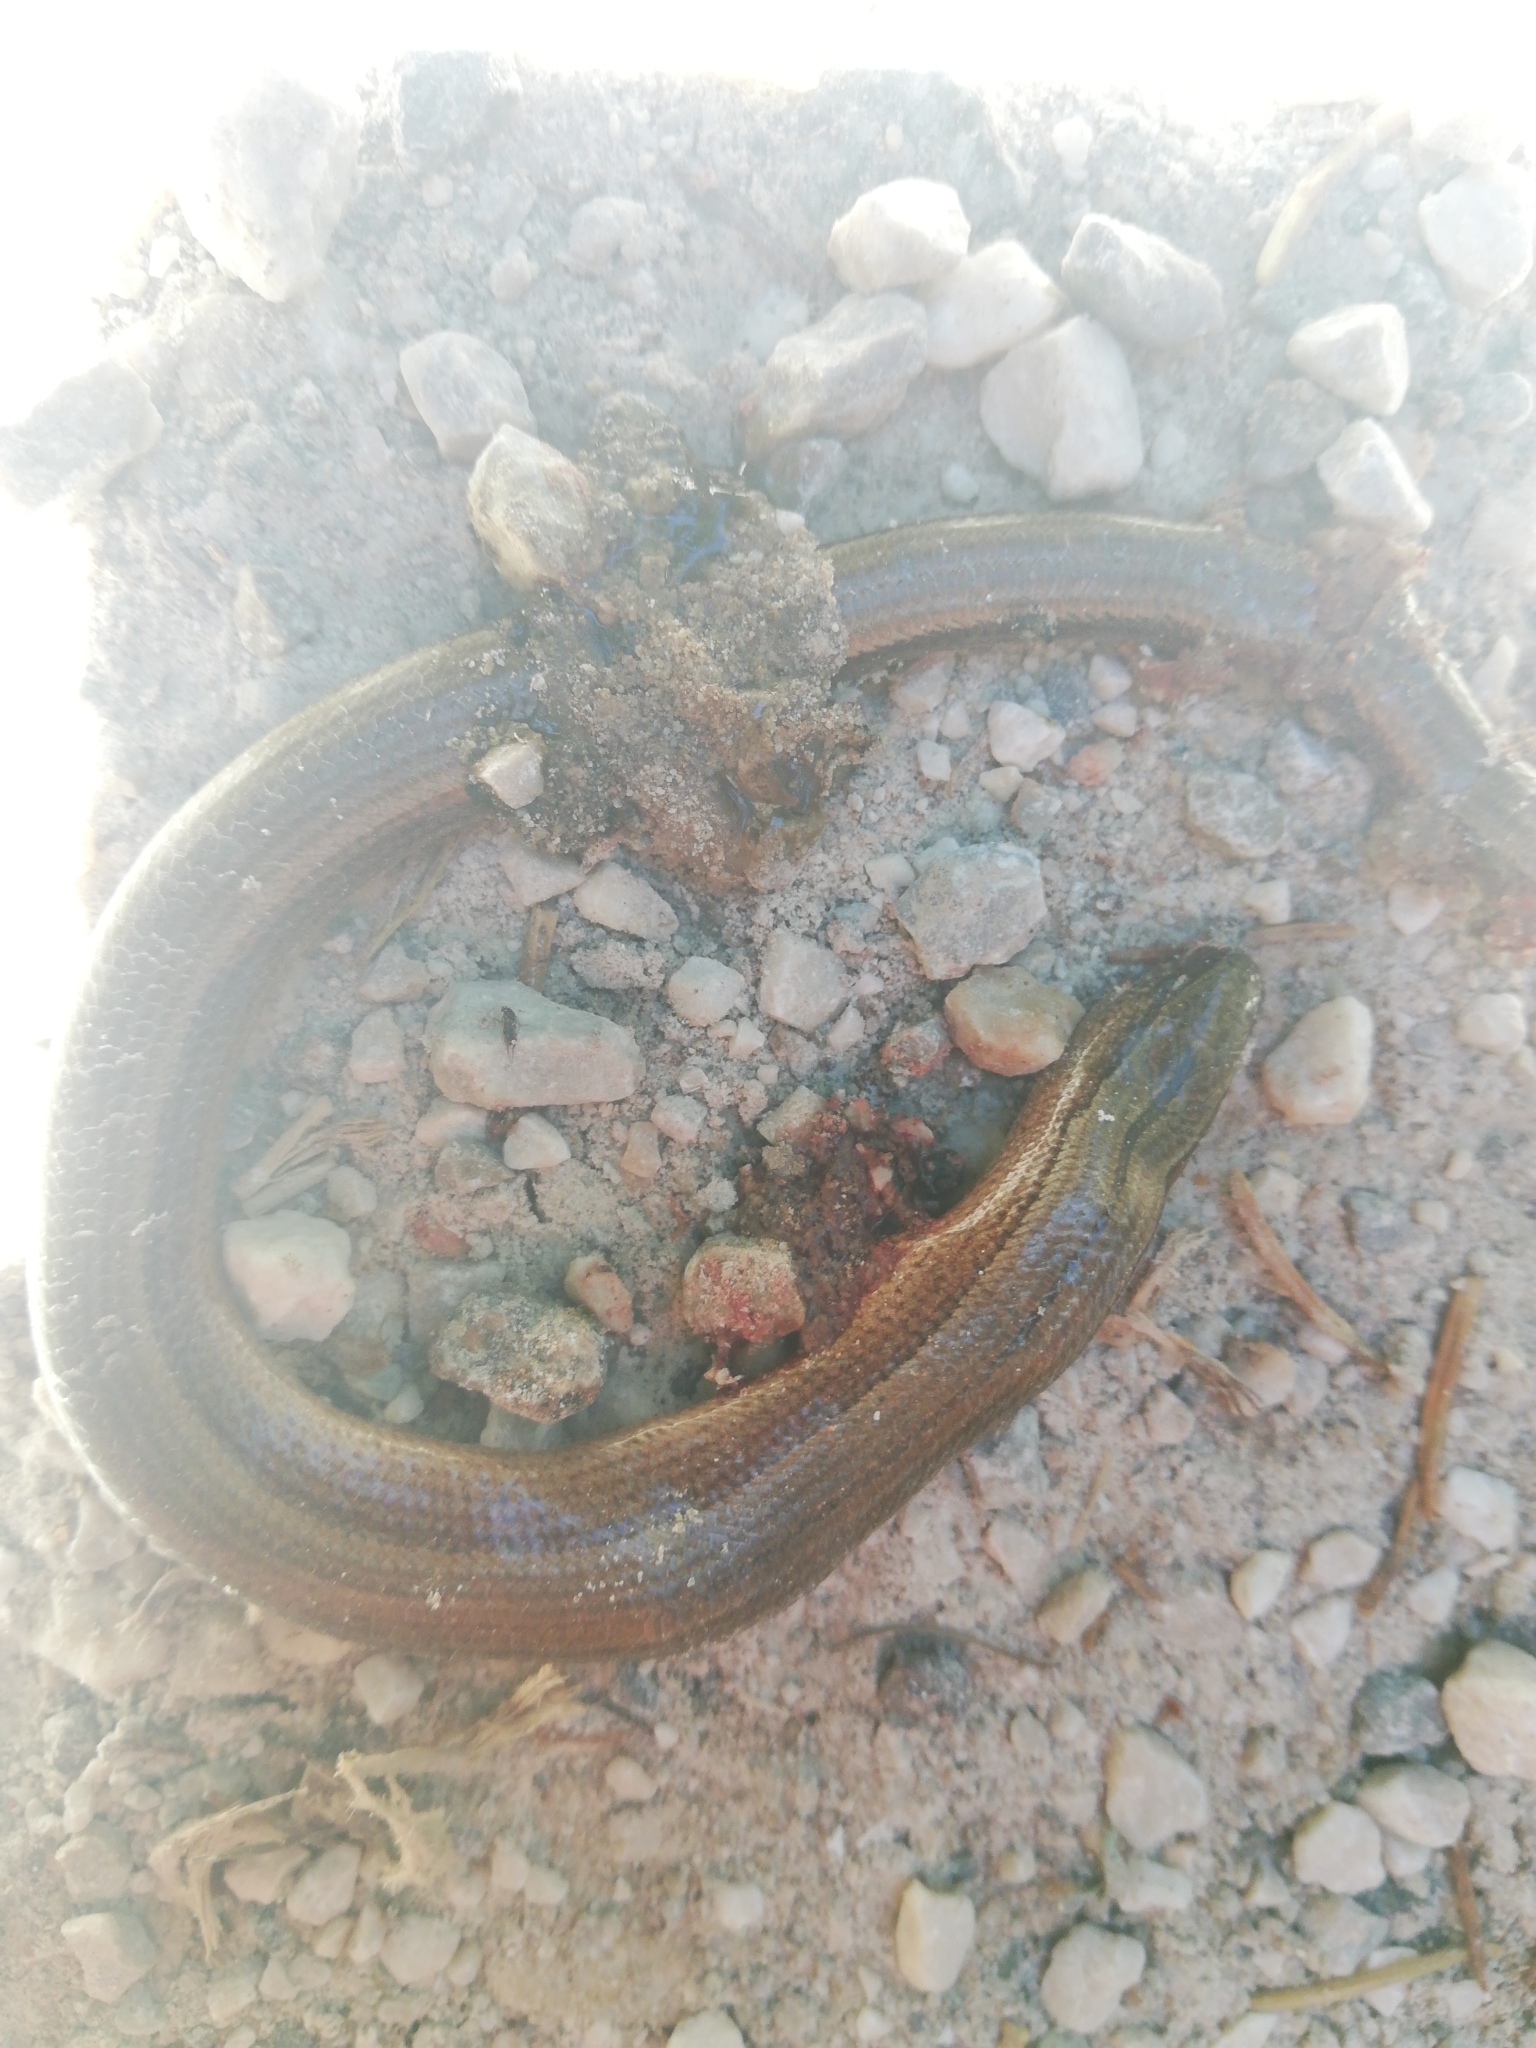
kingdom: Animalia
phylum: Chordata
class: Squamata
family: Anguidae
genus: Anguis
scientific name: Anguis veronensis
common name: Italian slow worm
